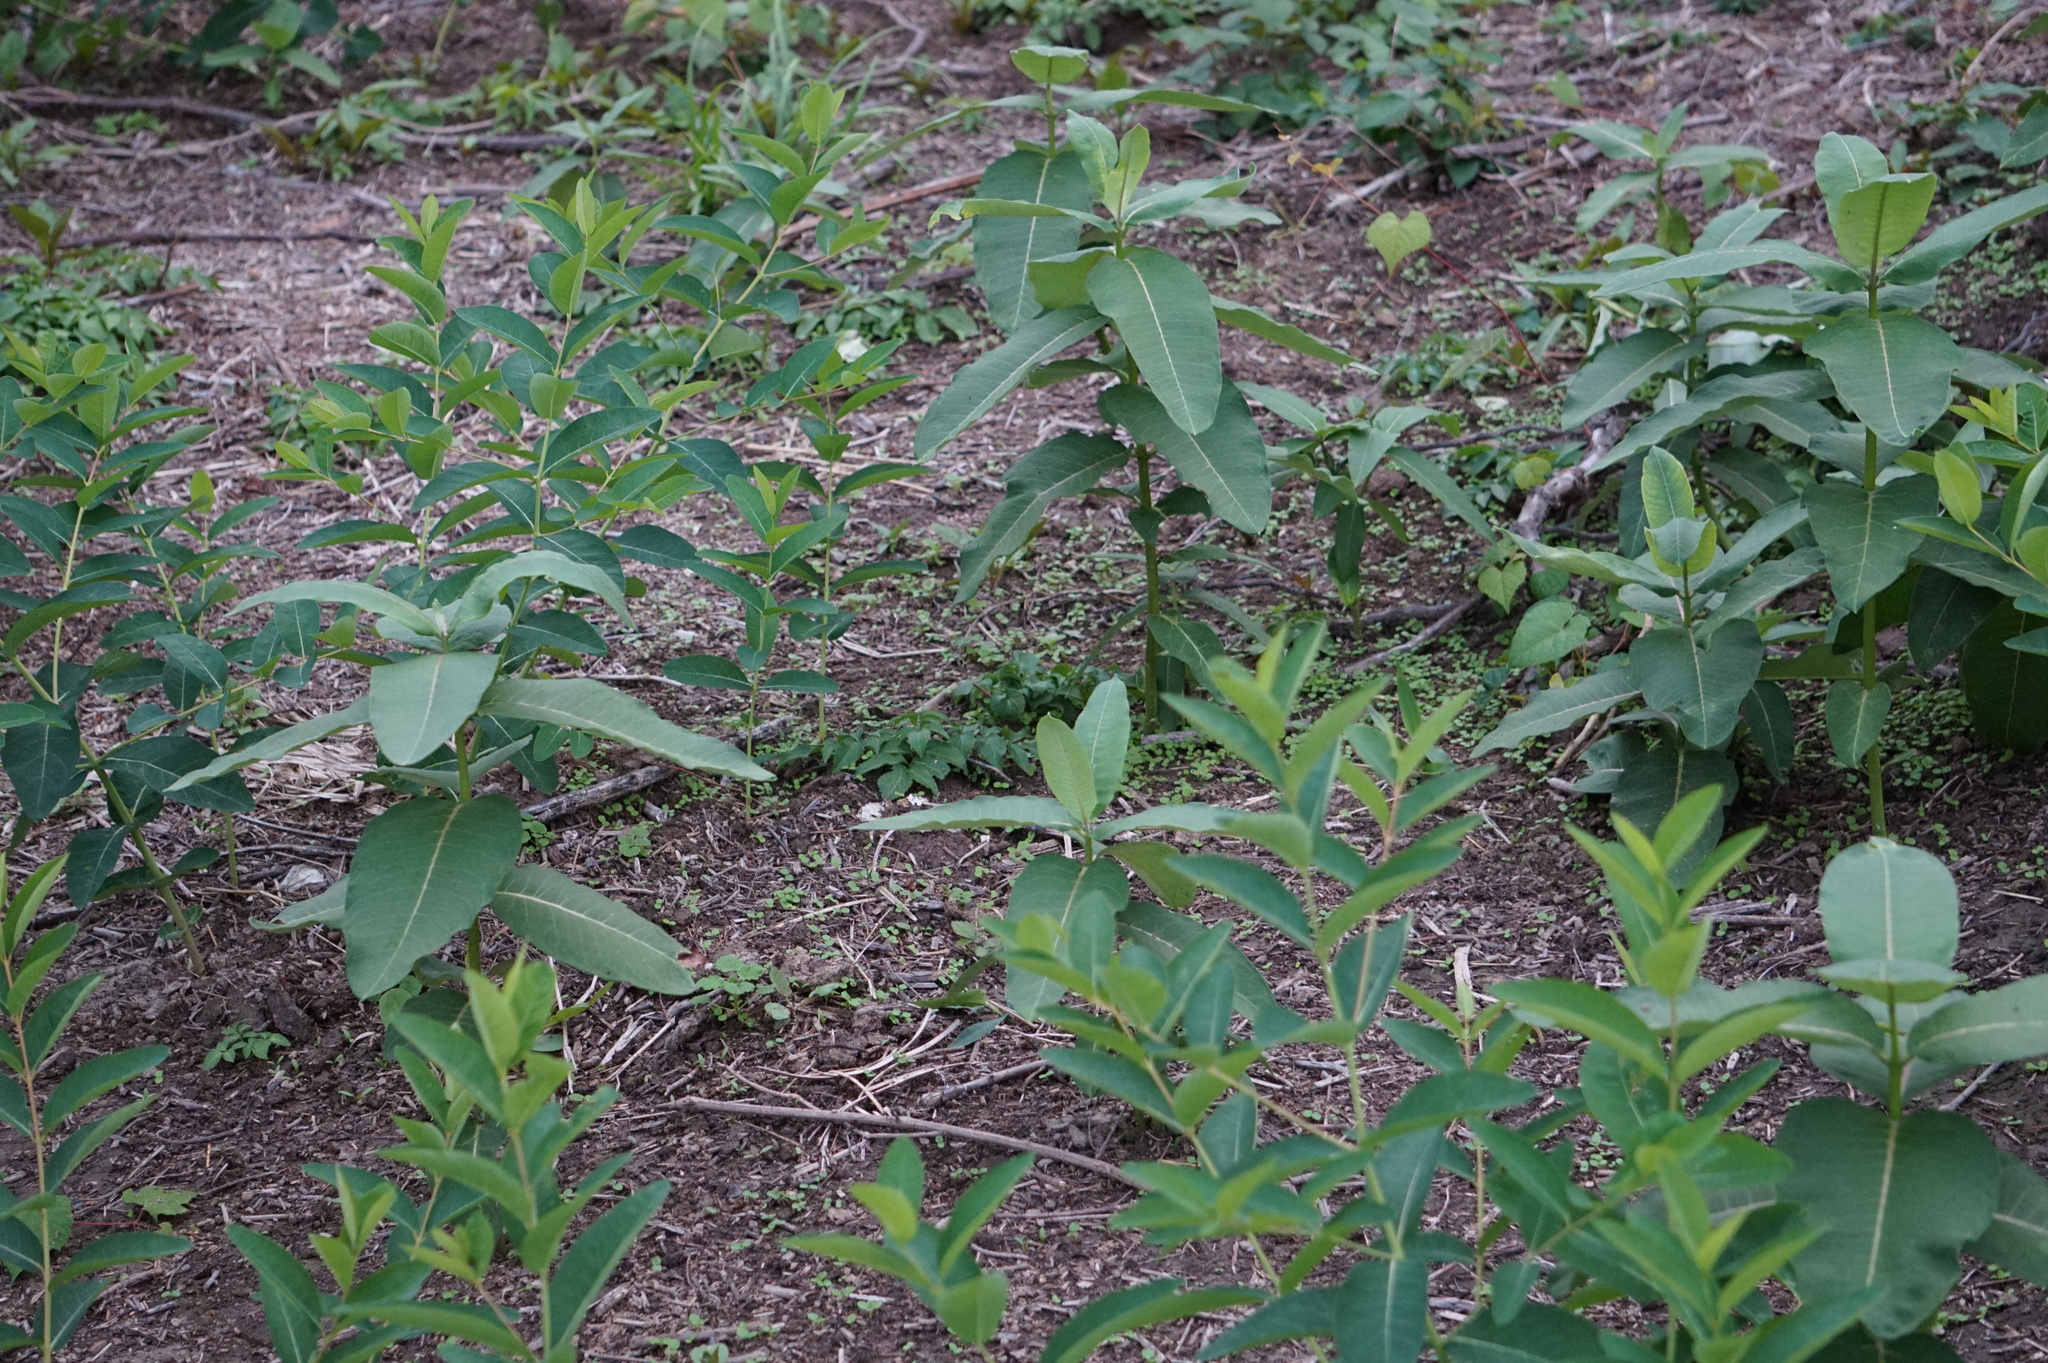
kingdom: Plantae
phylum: Tracheophyta
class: Magnoliopsida
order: Gentianales
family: Apocynaceae
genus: Asclepias
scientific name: Asclepias syriaca
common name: Common milkweed
